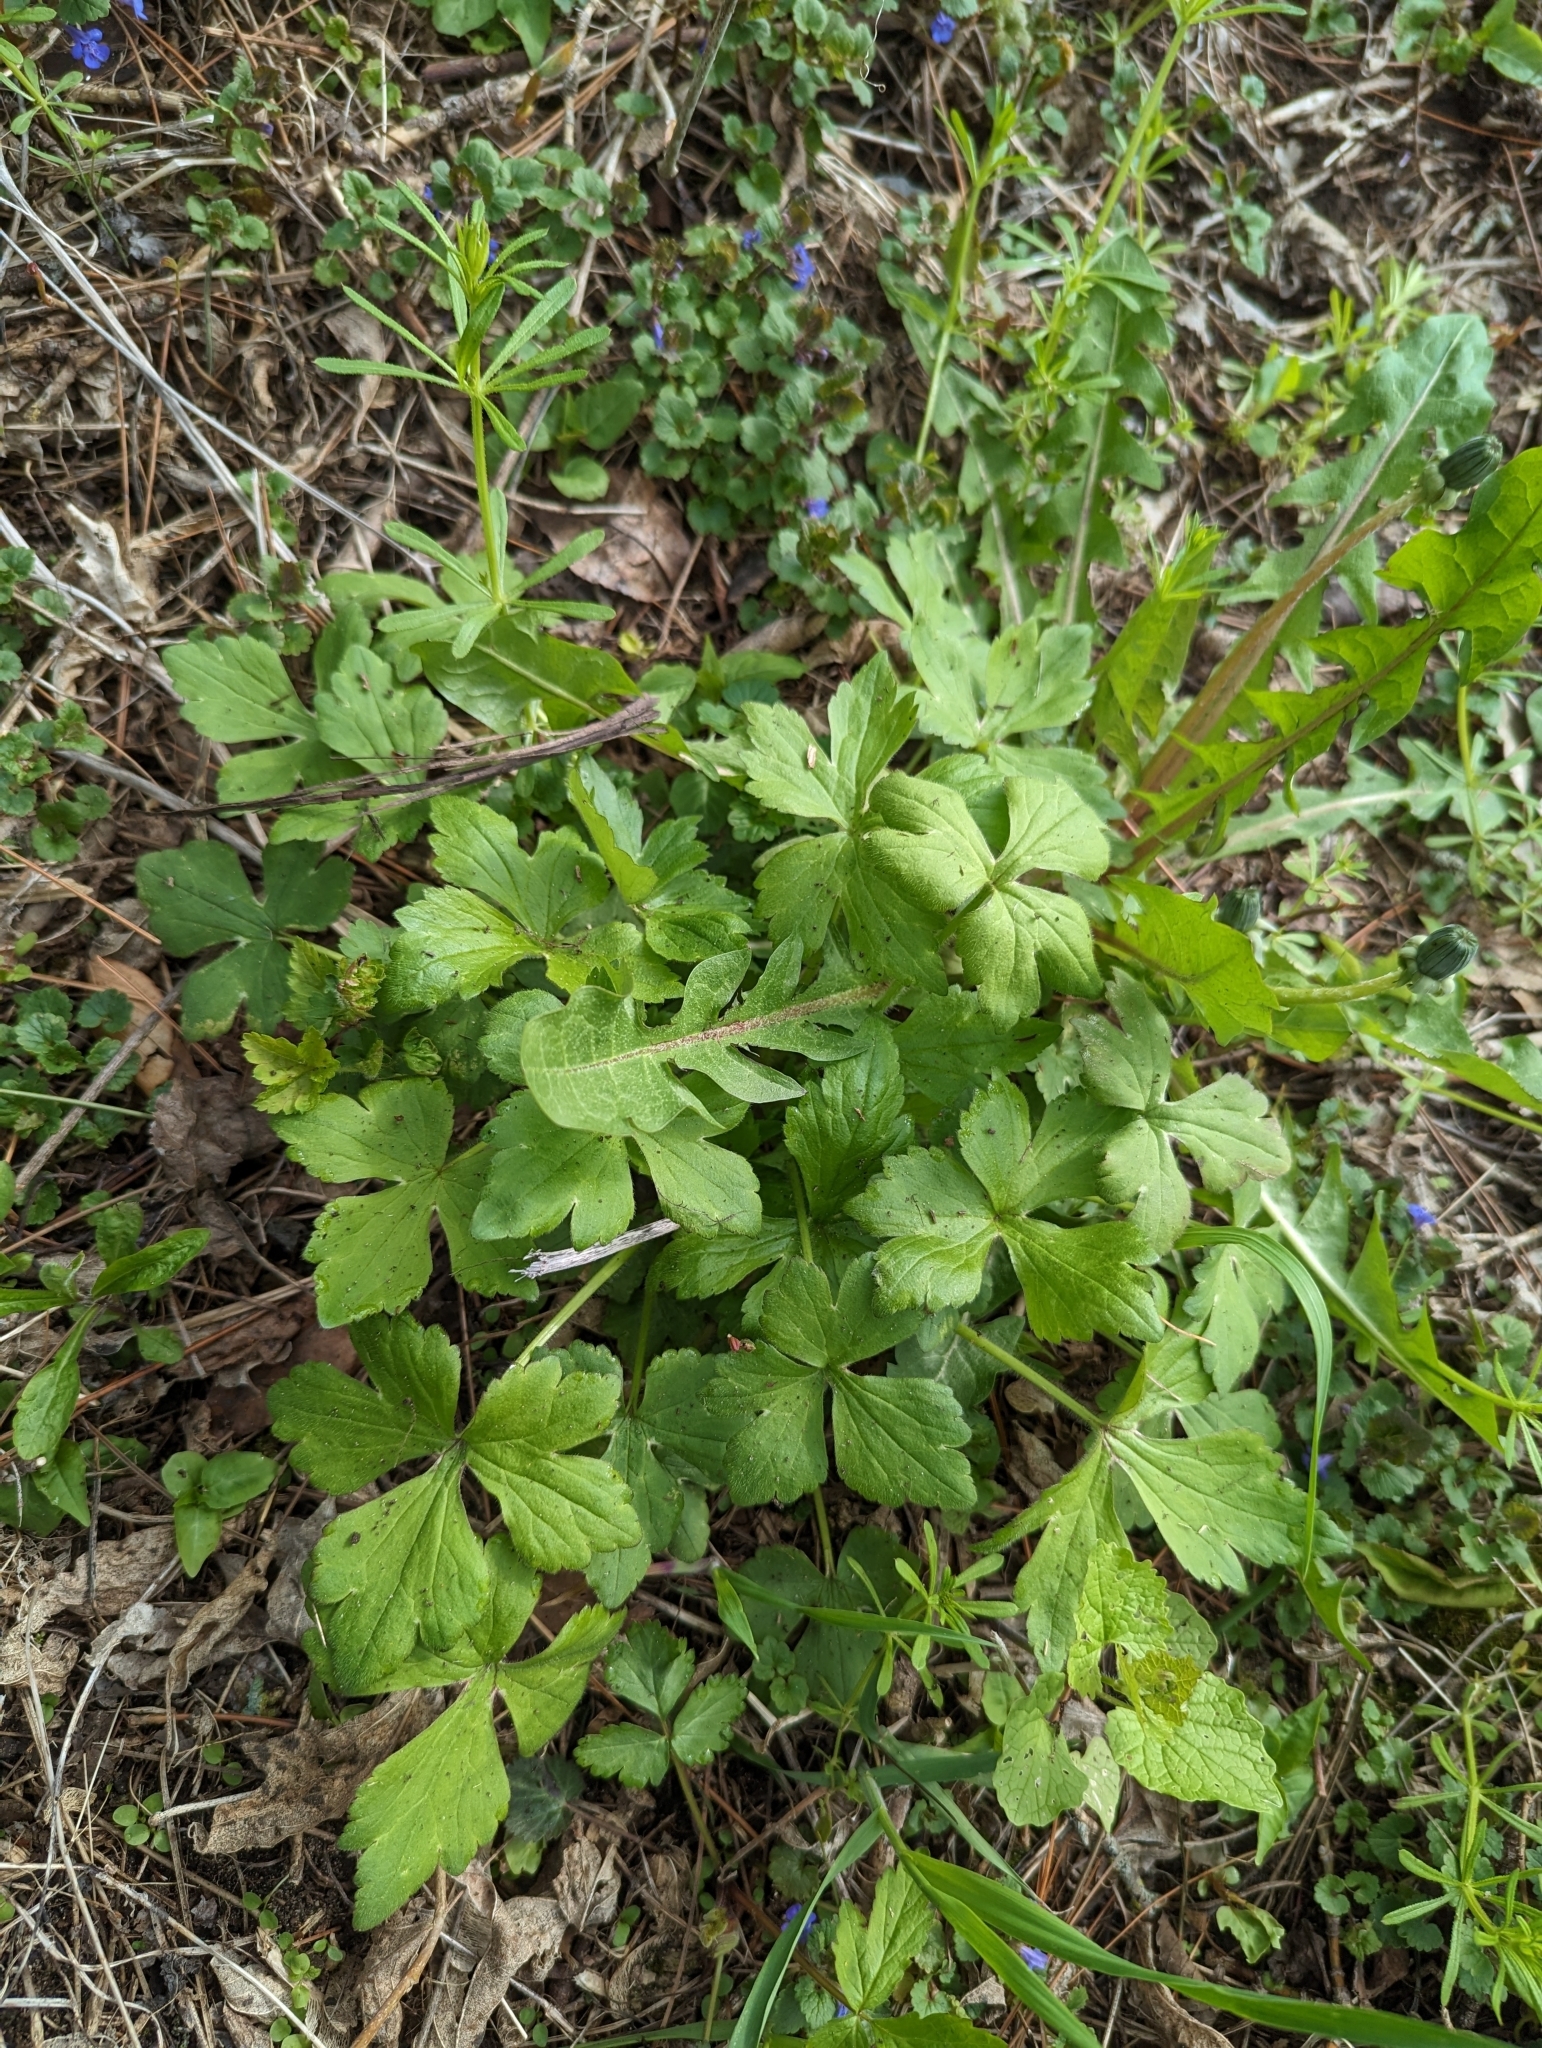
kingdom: Plantae
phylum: Tracheophyta
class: Magnoliopsida
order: Ranunculales
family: Ranunculaceae
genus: Ranunculus
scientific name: Ranunculus recurvatus
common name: Blisterwort
